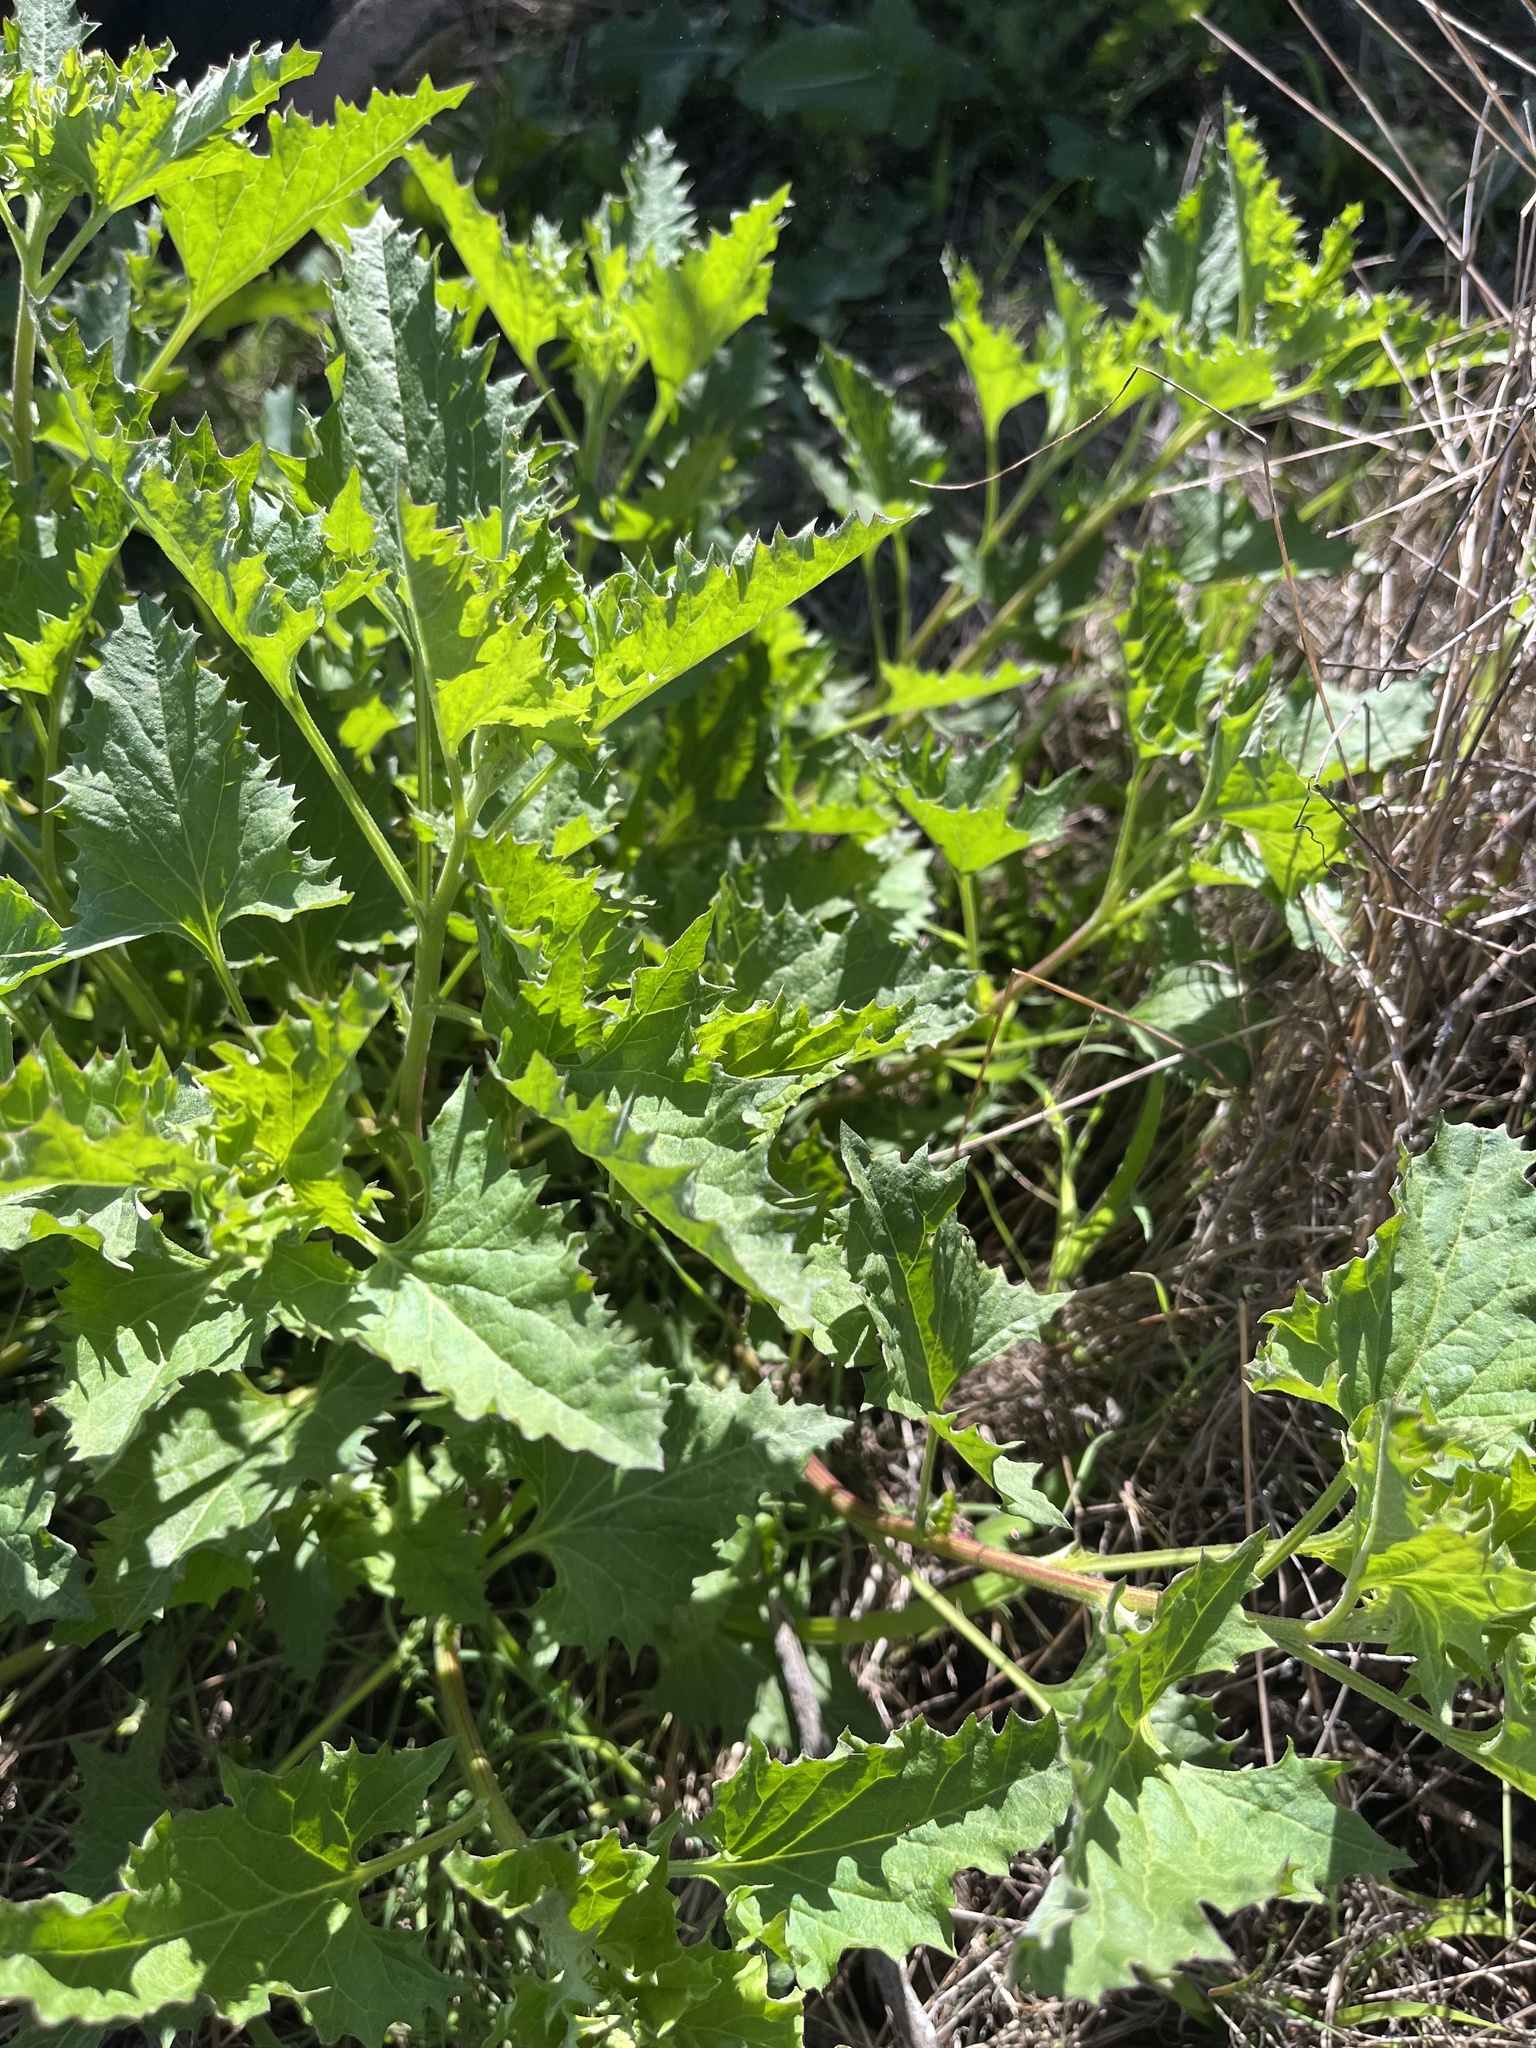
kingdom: Plantae
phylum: Tracheophyta
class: Magnoliopsida
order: Caryophyllales
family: Amaranthaceae
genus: Blitum
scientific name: Blitum californicum
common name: California goosefoot
